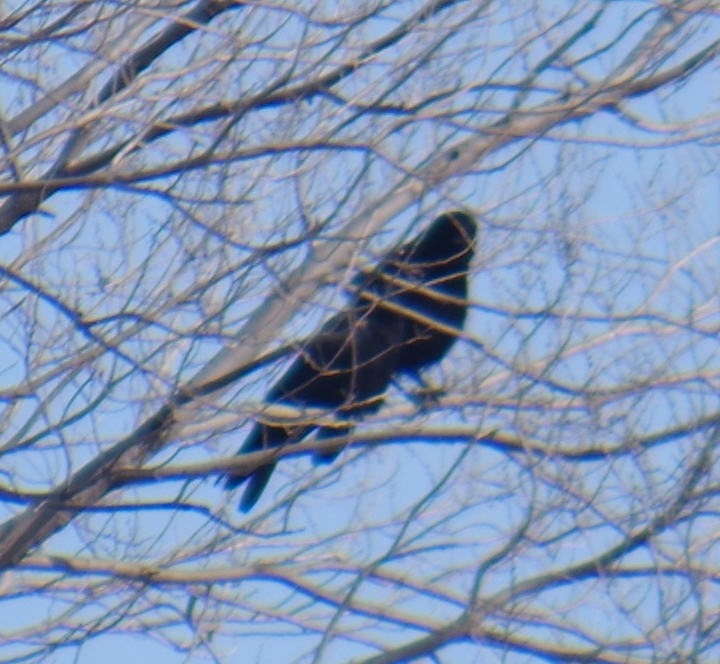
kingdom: Animalia
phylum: Chordata
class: Aves
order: Passeriformes
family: Corvidae
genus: Corvus
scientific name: Corvus brachyrhynchos
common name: American crow
